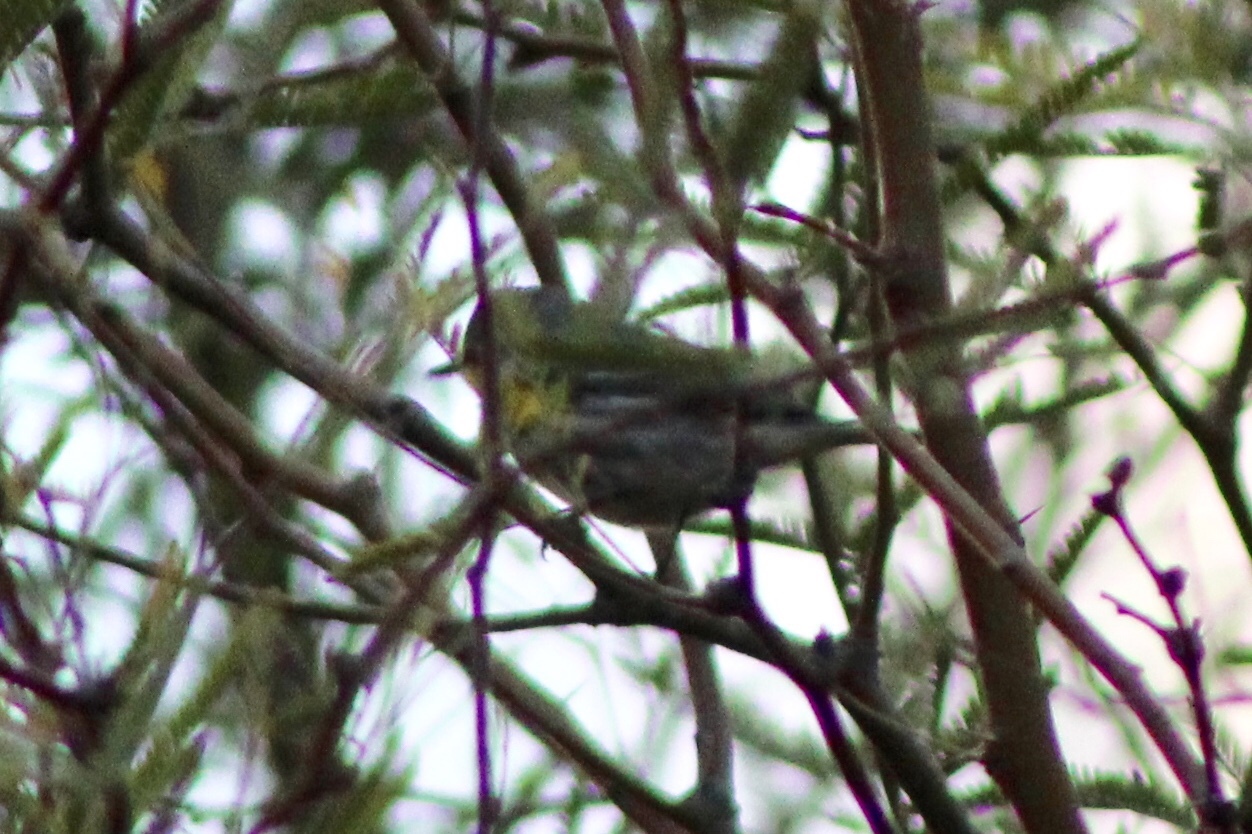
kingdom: Animalia
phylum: Chordata
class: Aves
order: Passeriformes
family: Parulidae
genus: Setophaga
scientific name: Setophaga auduboni
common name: Audubon's warbler
